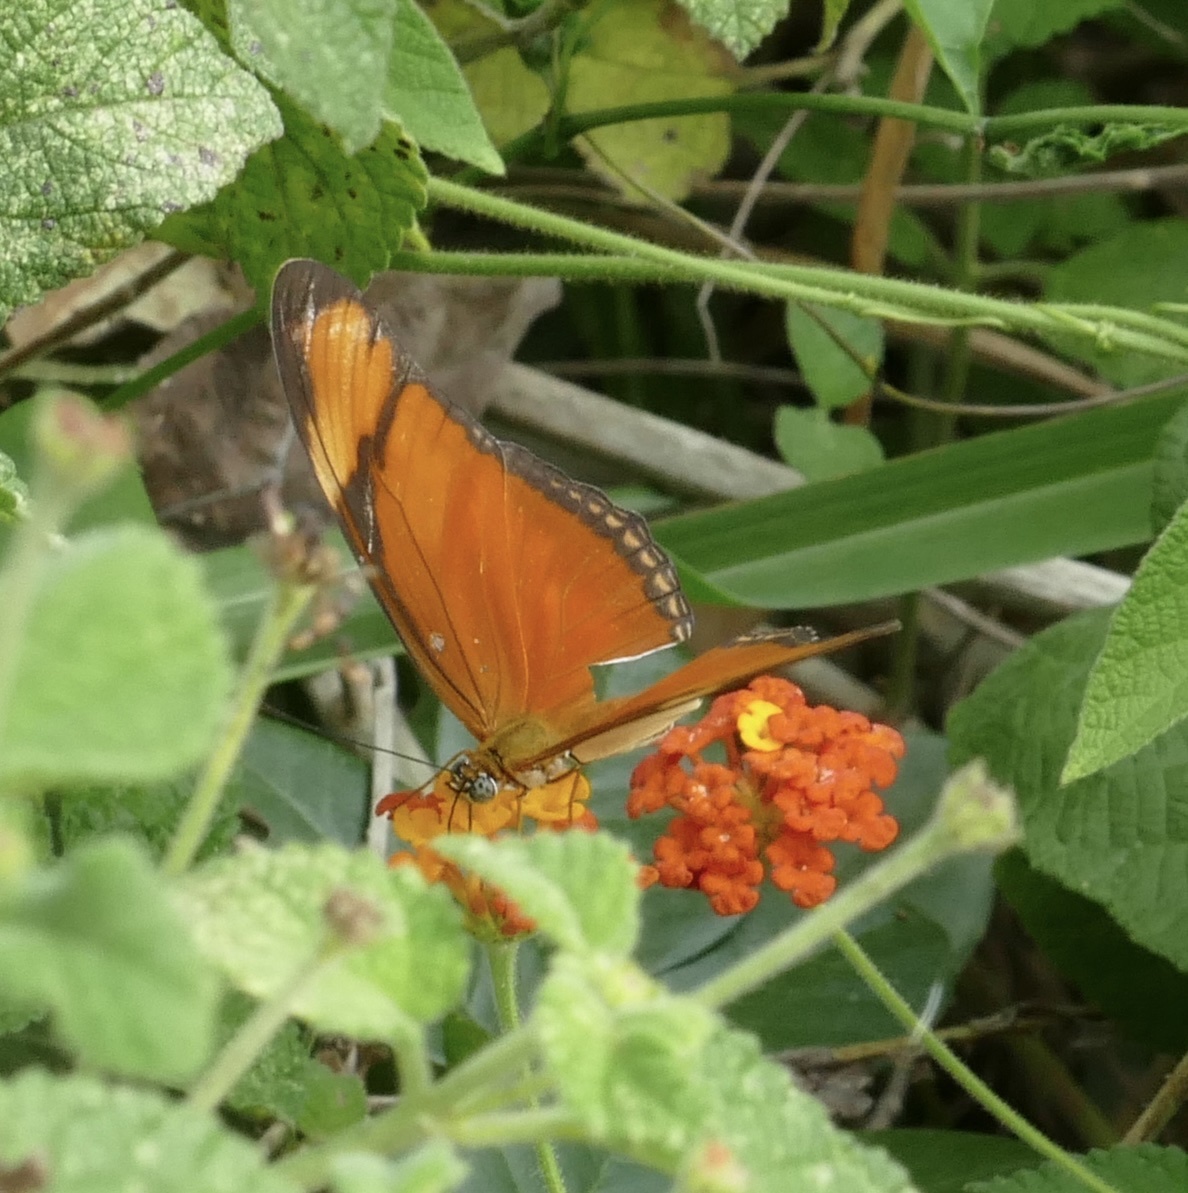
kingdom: Animalia
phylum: Arthropoda
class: Insecta
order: Lepidoptera
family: Nymphalidae
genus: Dryas
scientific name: Dryas iulia
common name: Flambeau
